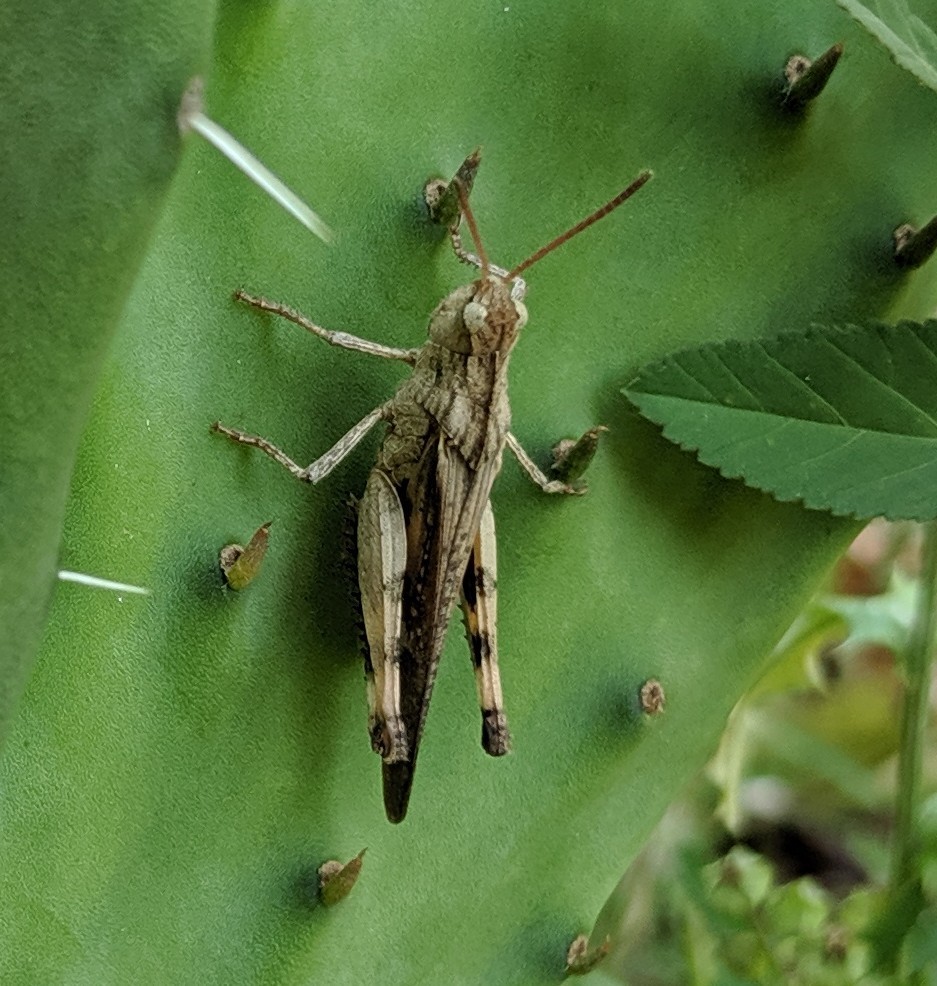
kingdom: Animalia
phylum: Arthropoda
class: Insecta
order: Orthoptera
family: Acrididae
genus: Chortophaga
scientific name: Chortophaga viridifasciata
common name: Green-striped grasshopper
